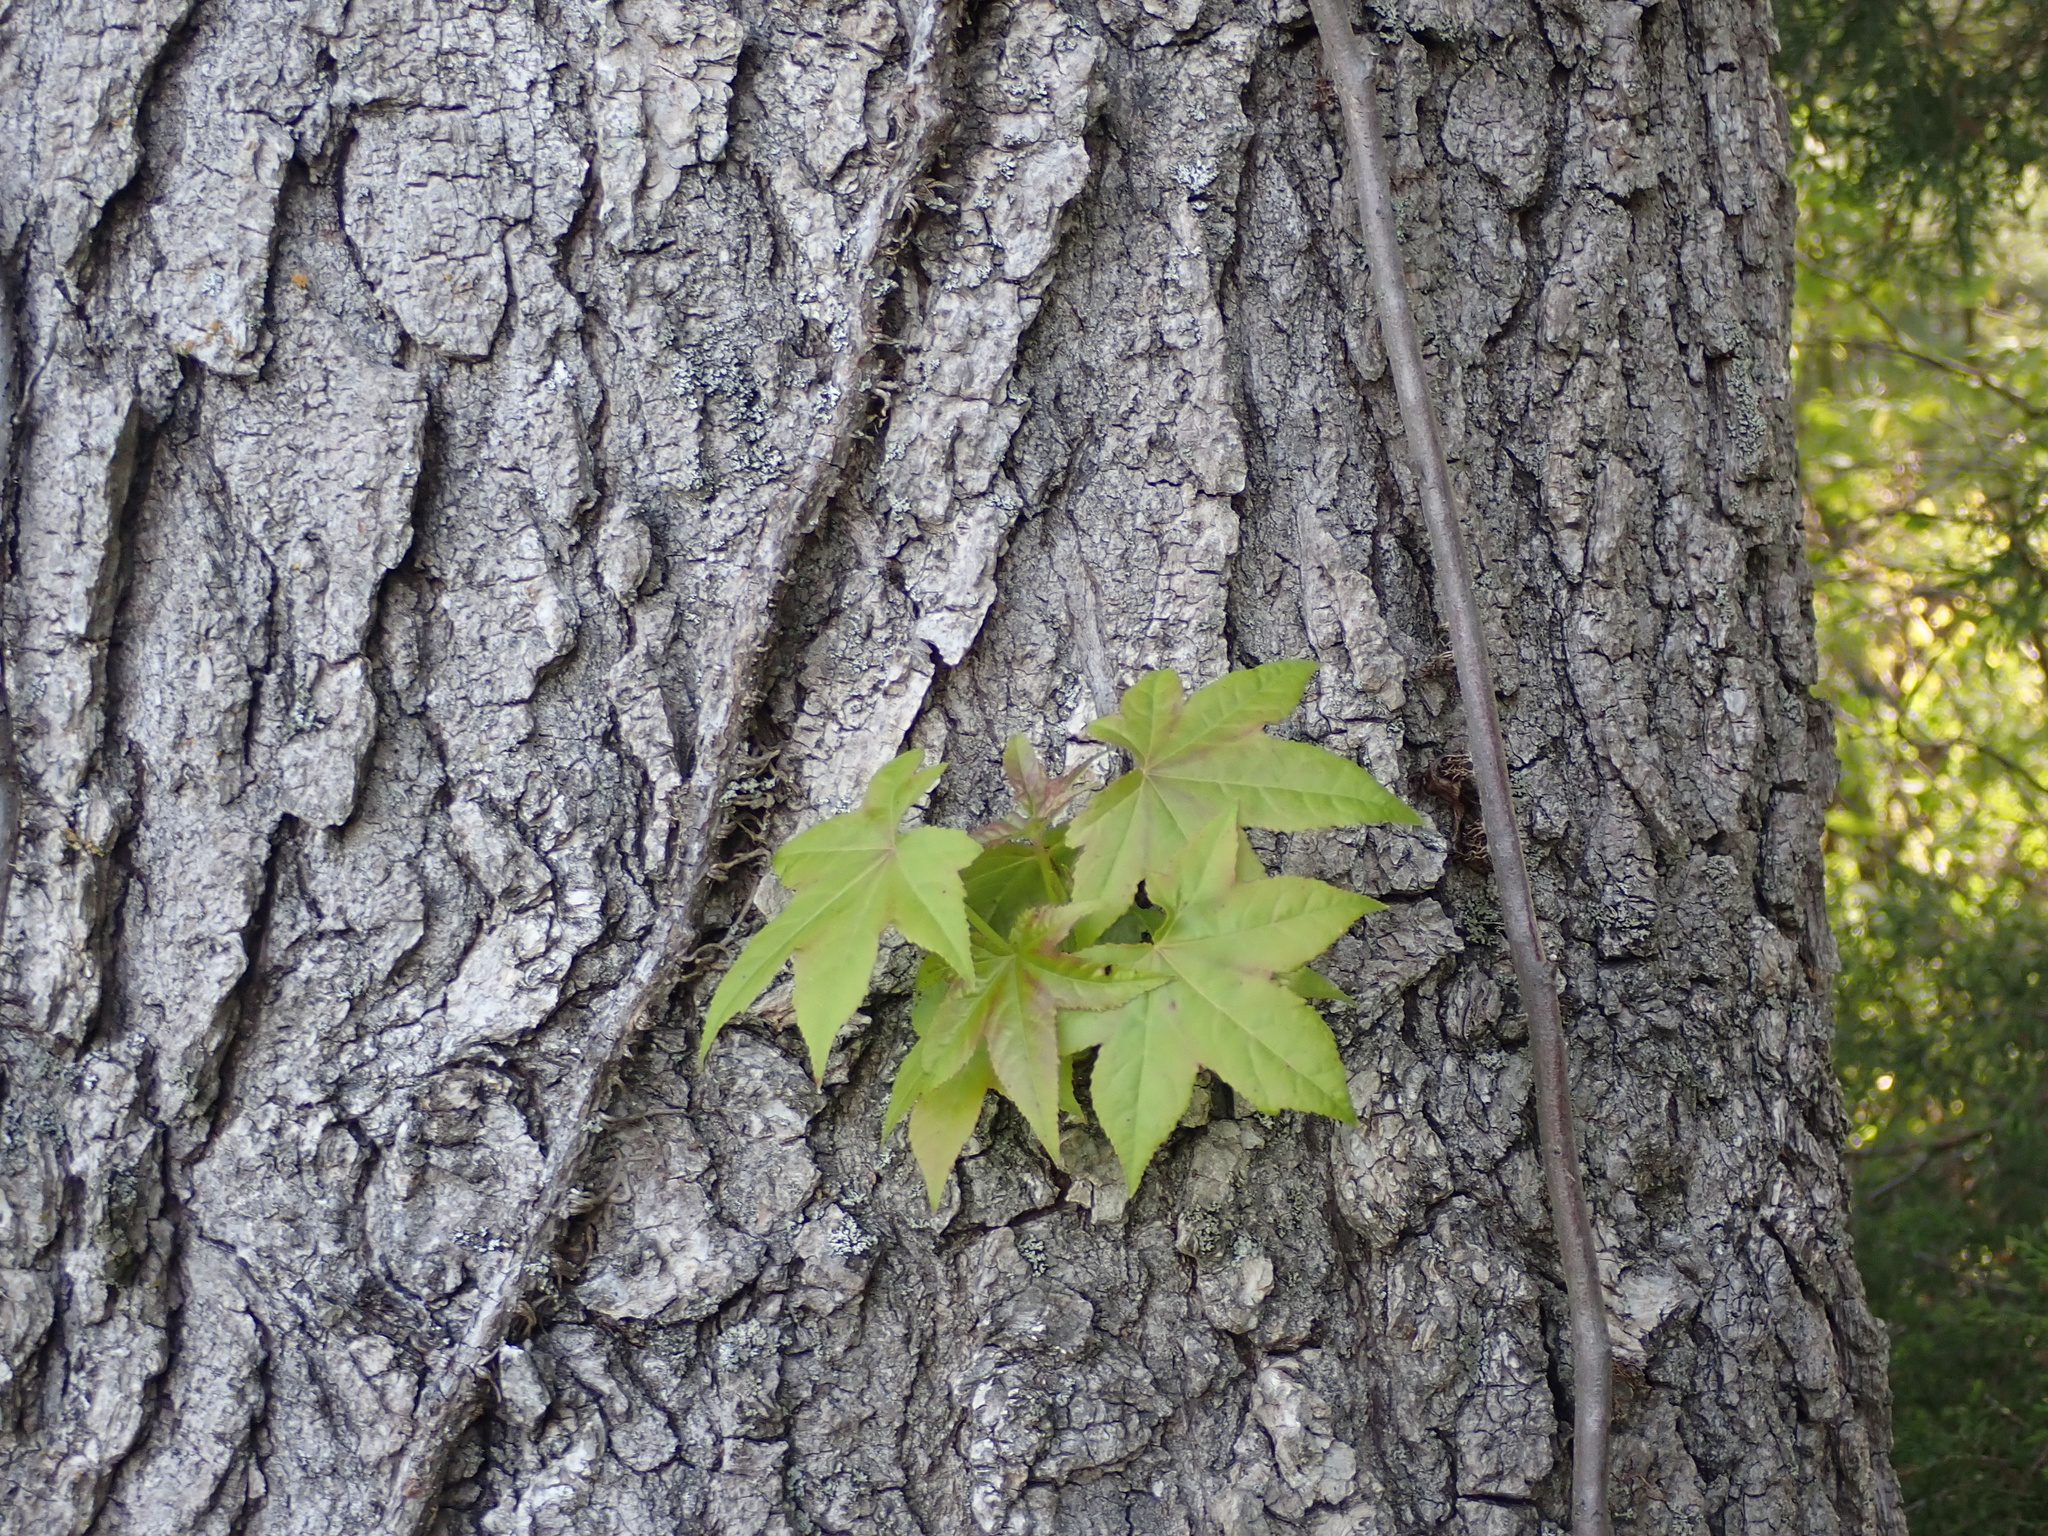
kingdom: Plantae
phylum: Tracheophyta
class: Magnoliopsida
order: Saxifragales
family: Altingiaceae
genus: Liquidambar
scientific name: Liquidambar styraciflua
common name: Sweet gum
